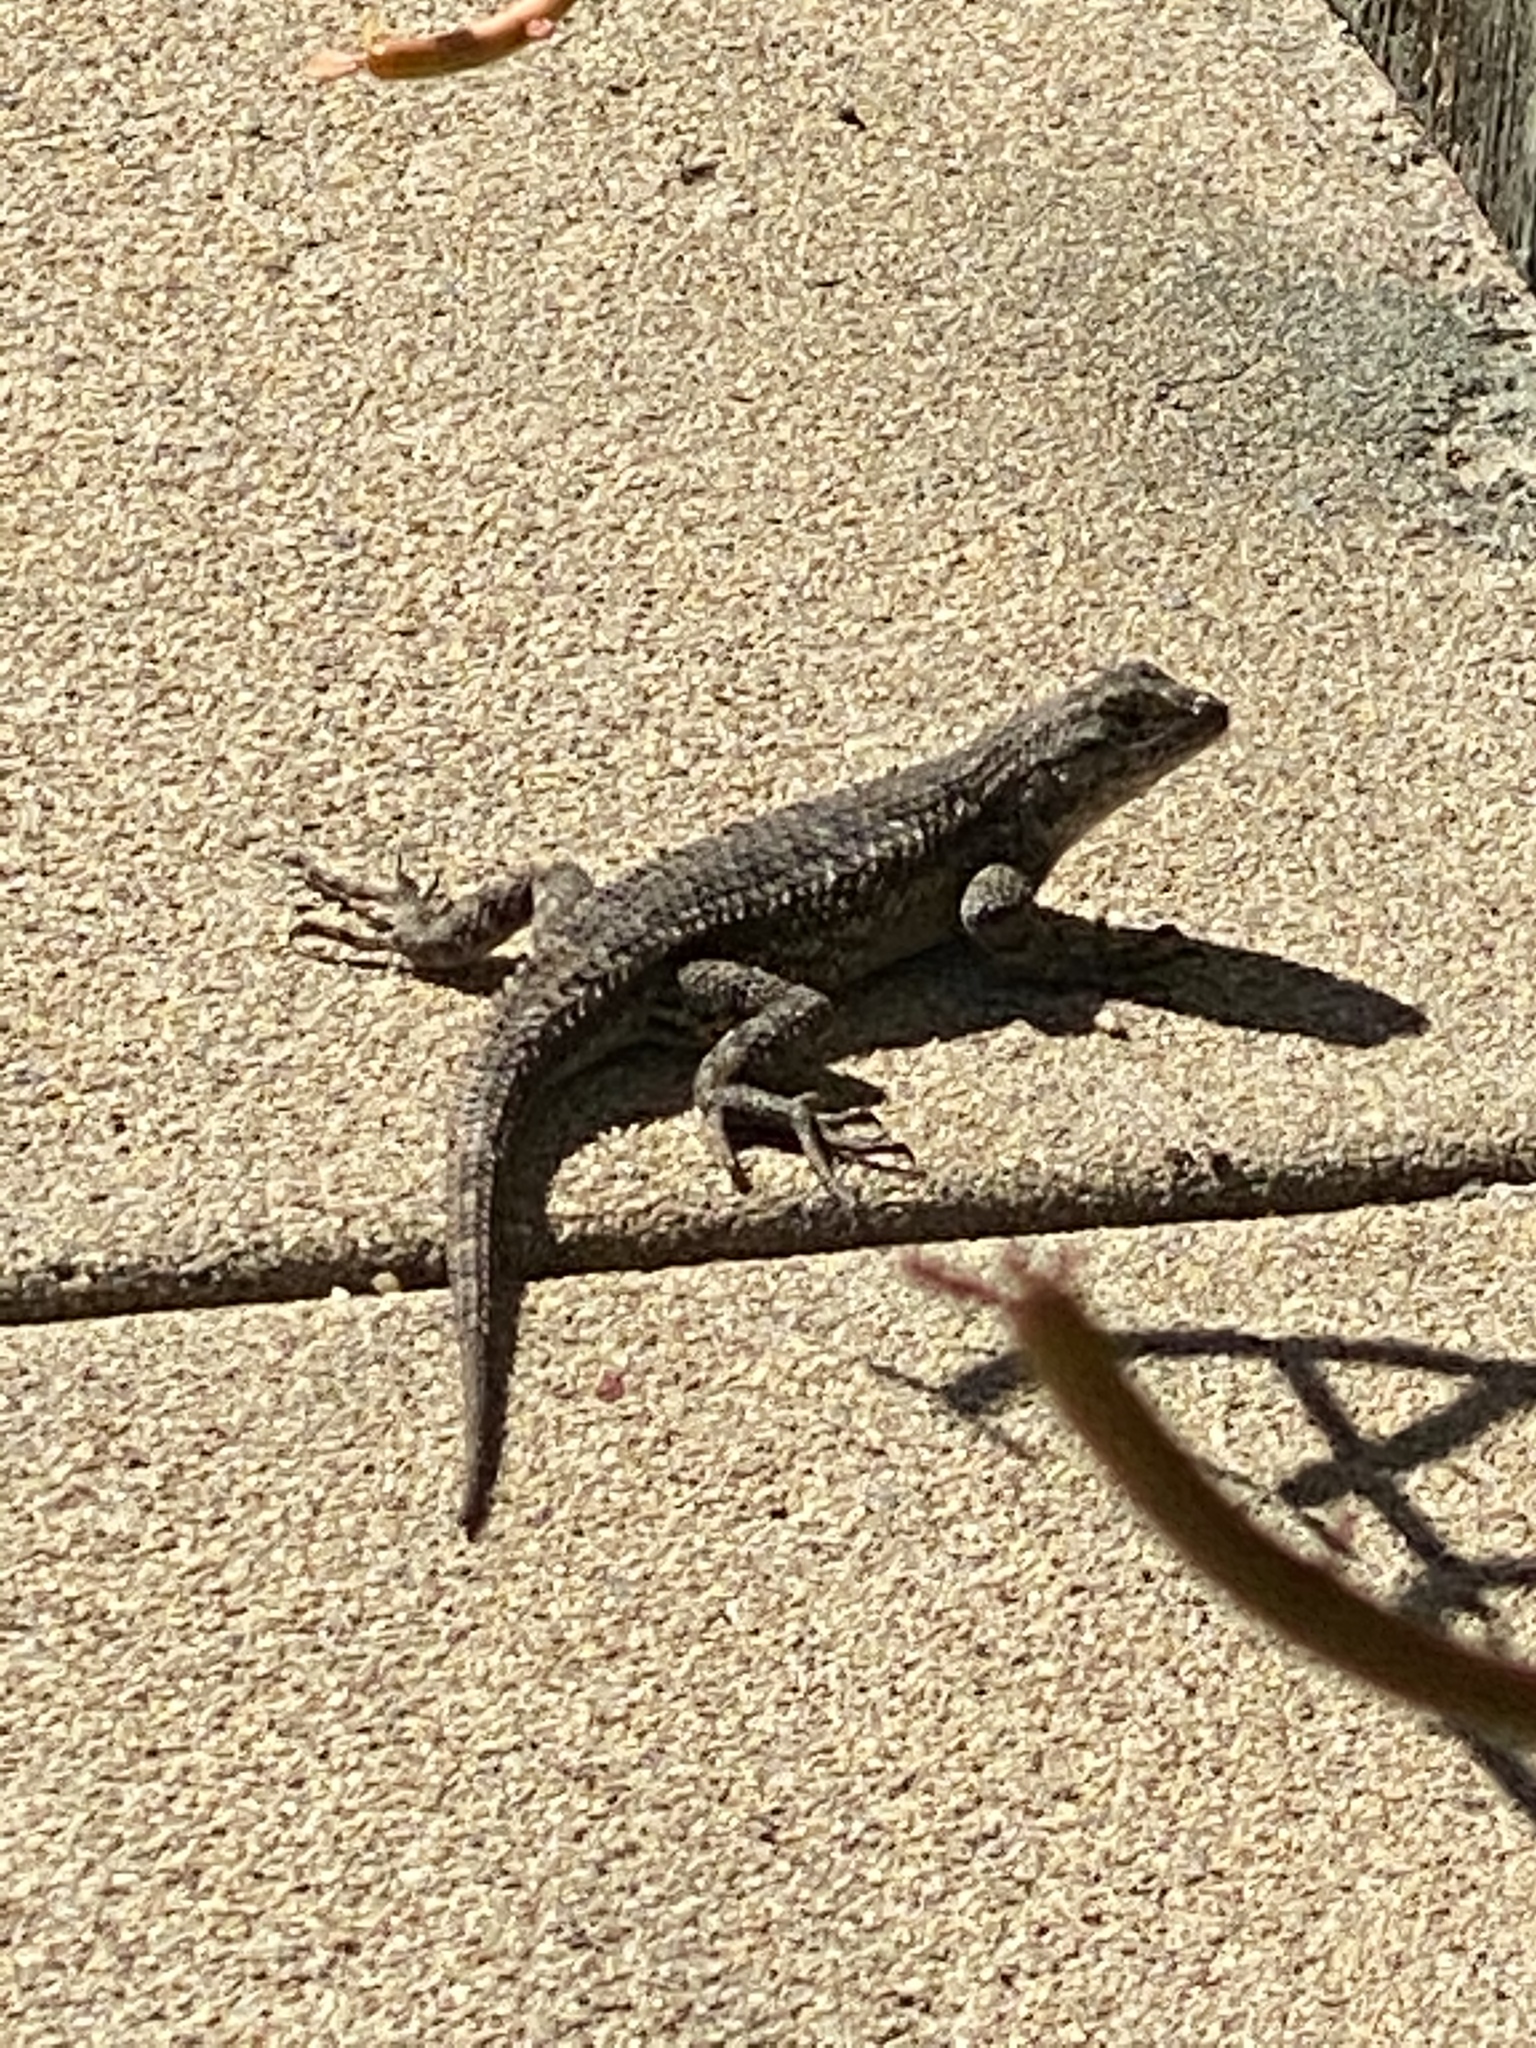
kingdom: Animalia
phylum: Chordata
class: Squamata
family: Phrynosomatidae
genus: Sceloporus
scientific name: Sceloporus occidentalis
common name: Western fence lizard
